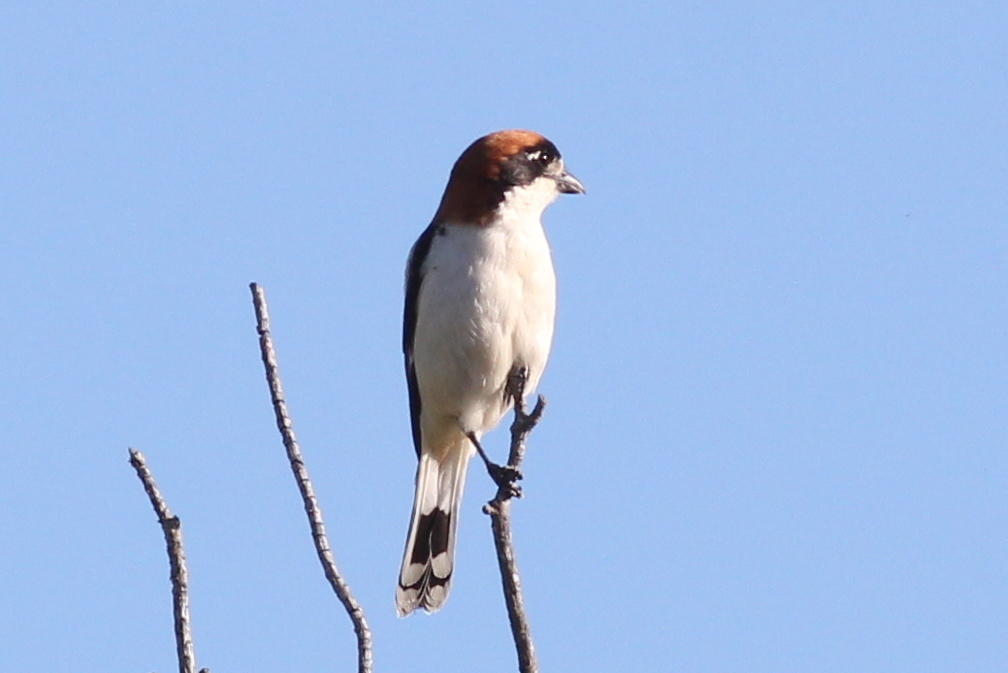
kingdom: Animalia
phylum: Chordata
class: Aves
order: Passeriformes
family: Laniidae
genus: Lanius
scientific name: Lanius senator
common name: Woodchat shrike
